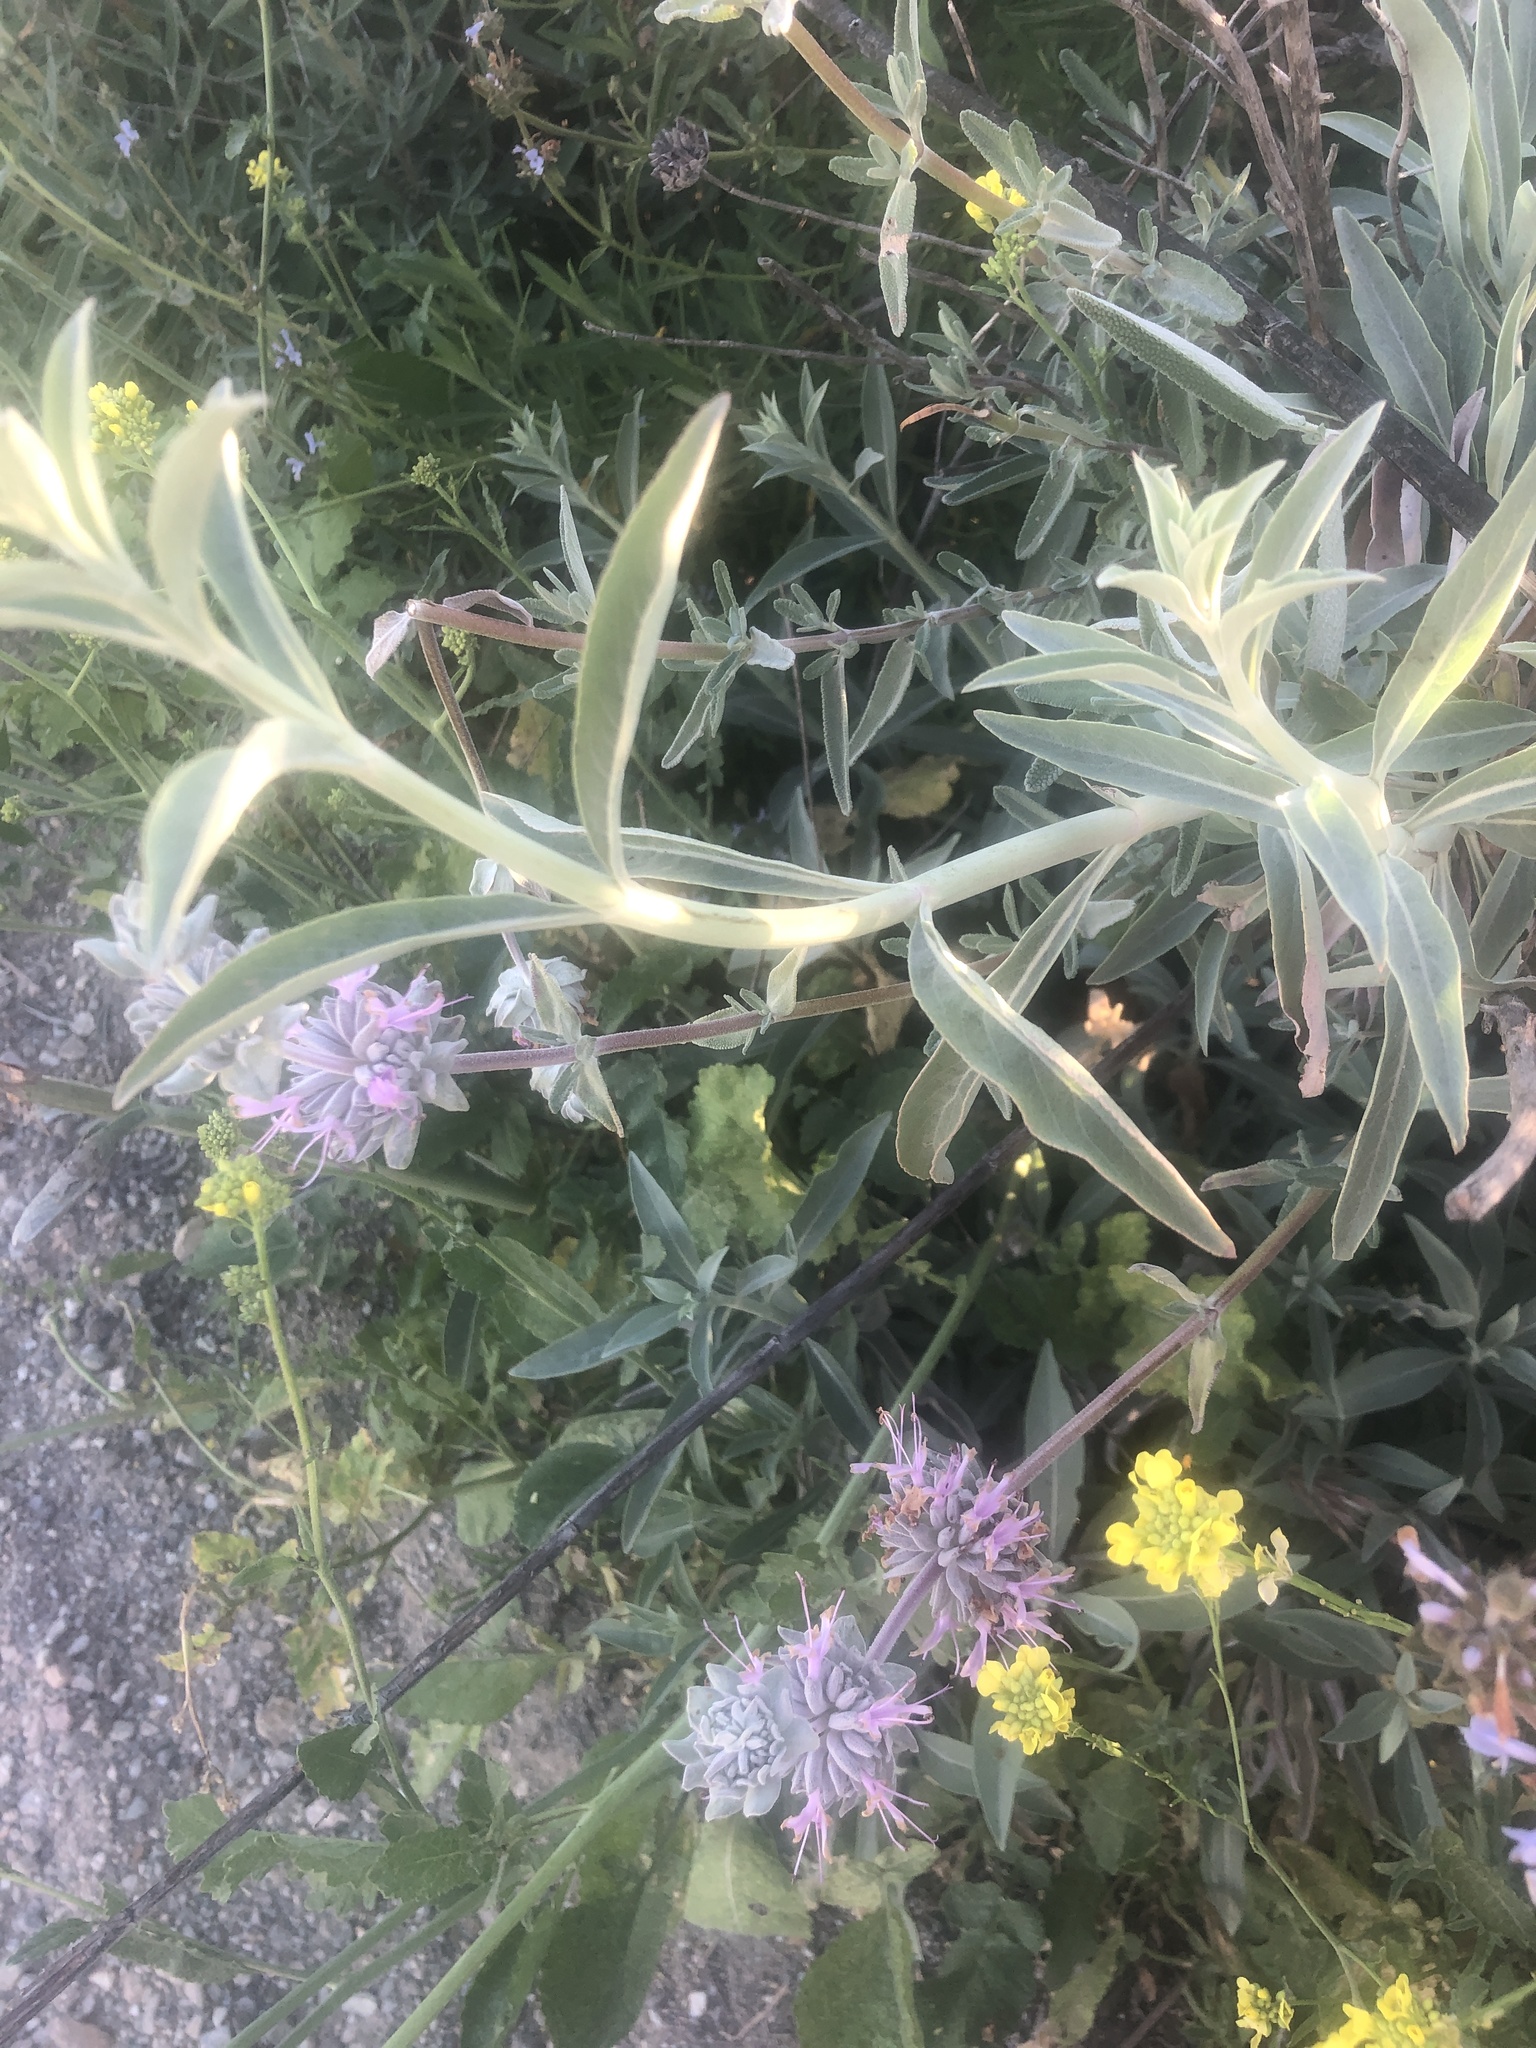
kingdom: Plantae
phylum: Tracheophyta
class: Magnoliopsida
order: Lamiales
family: Lamiaceae
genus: Salvia
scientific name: Salvia apiana
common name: White sage
